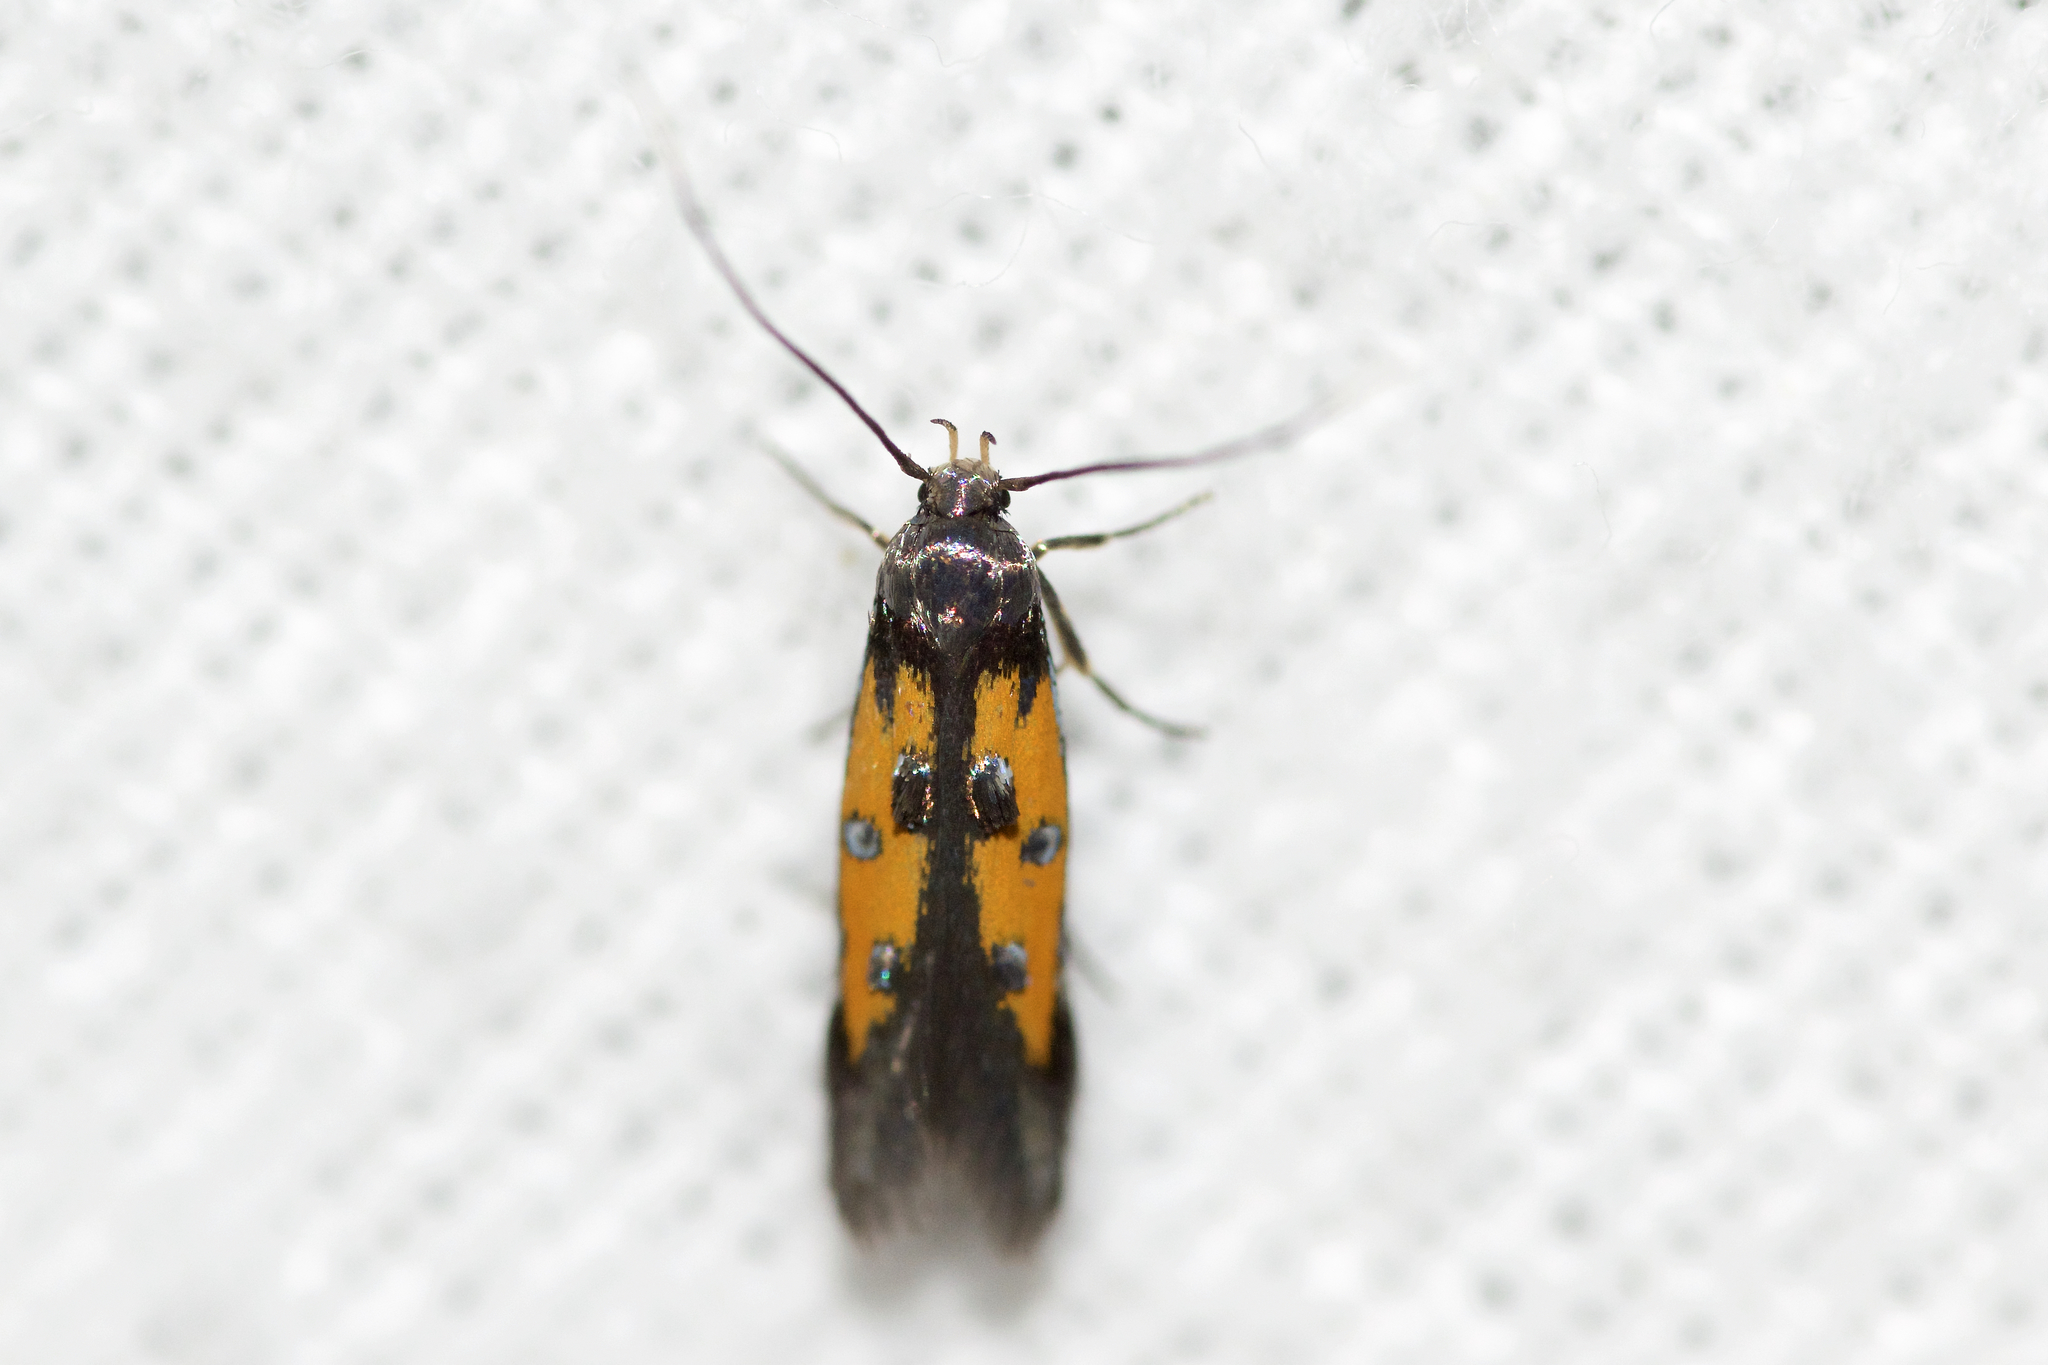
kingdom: Animalia
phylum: Arthropoda
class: Insecta
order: Lepidoptera
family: Elachistidae
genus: Chrysoclista
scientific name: Chrysoclista linneela
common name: Lime cosmet
